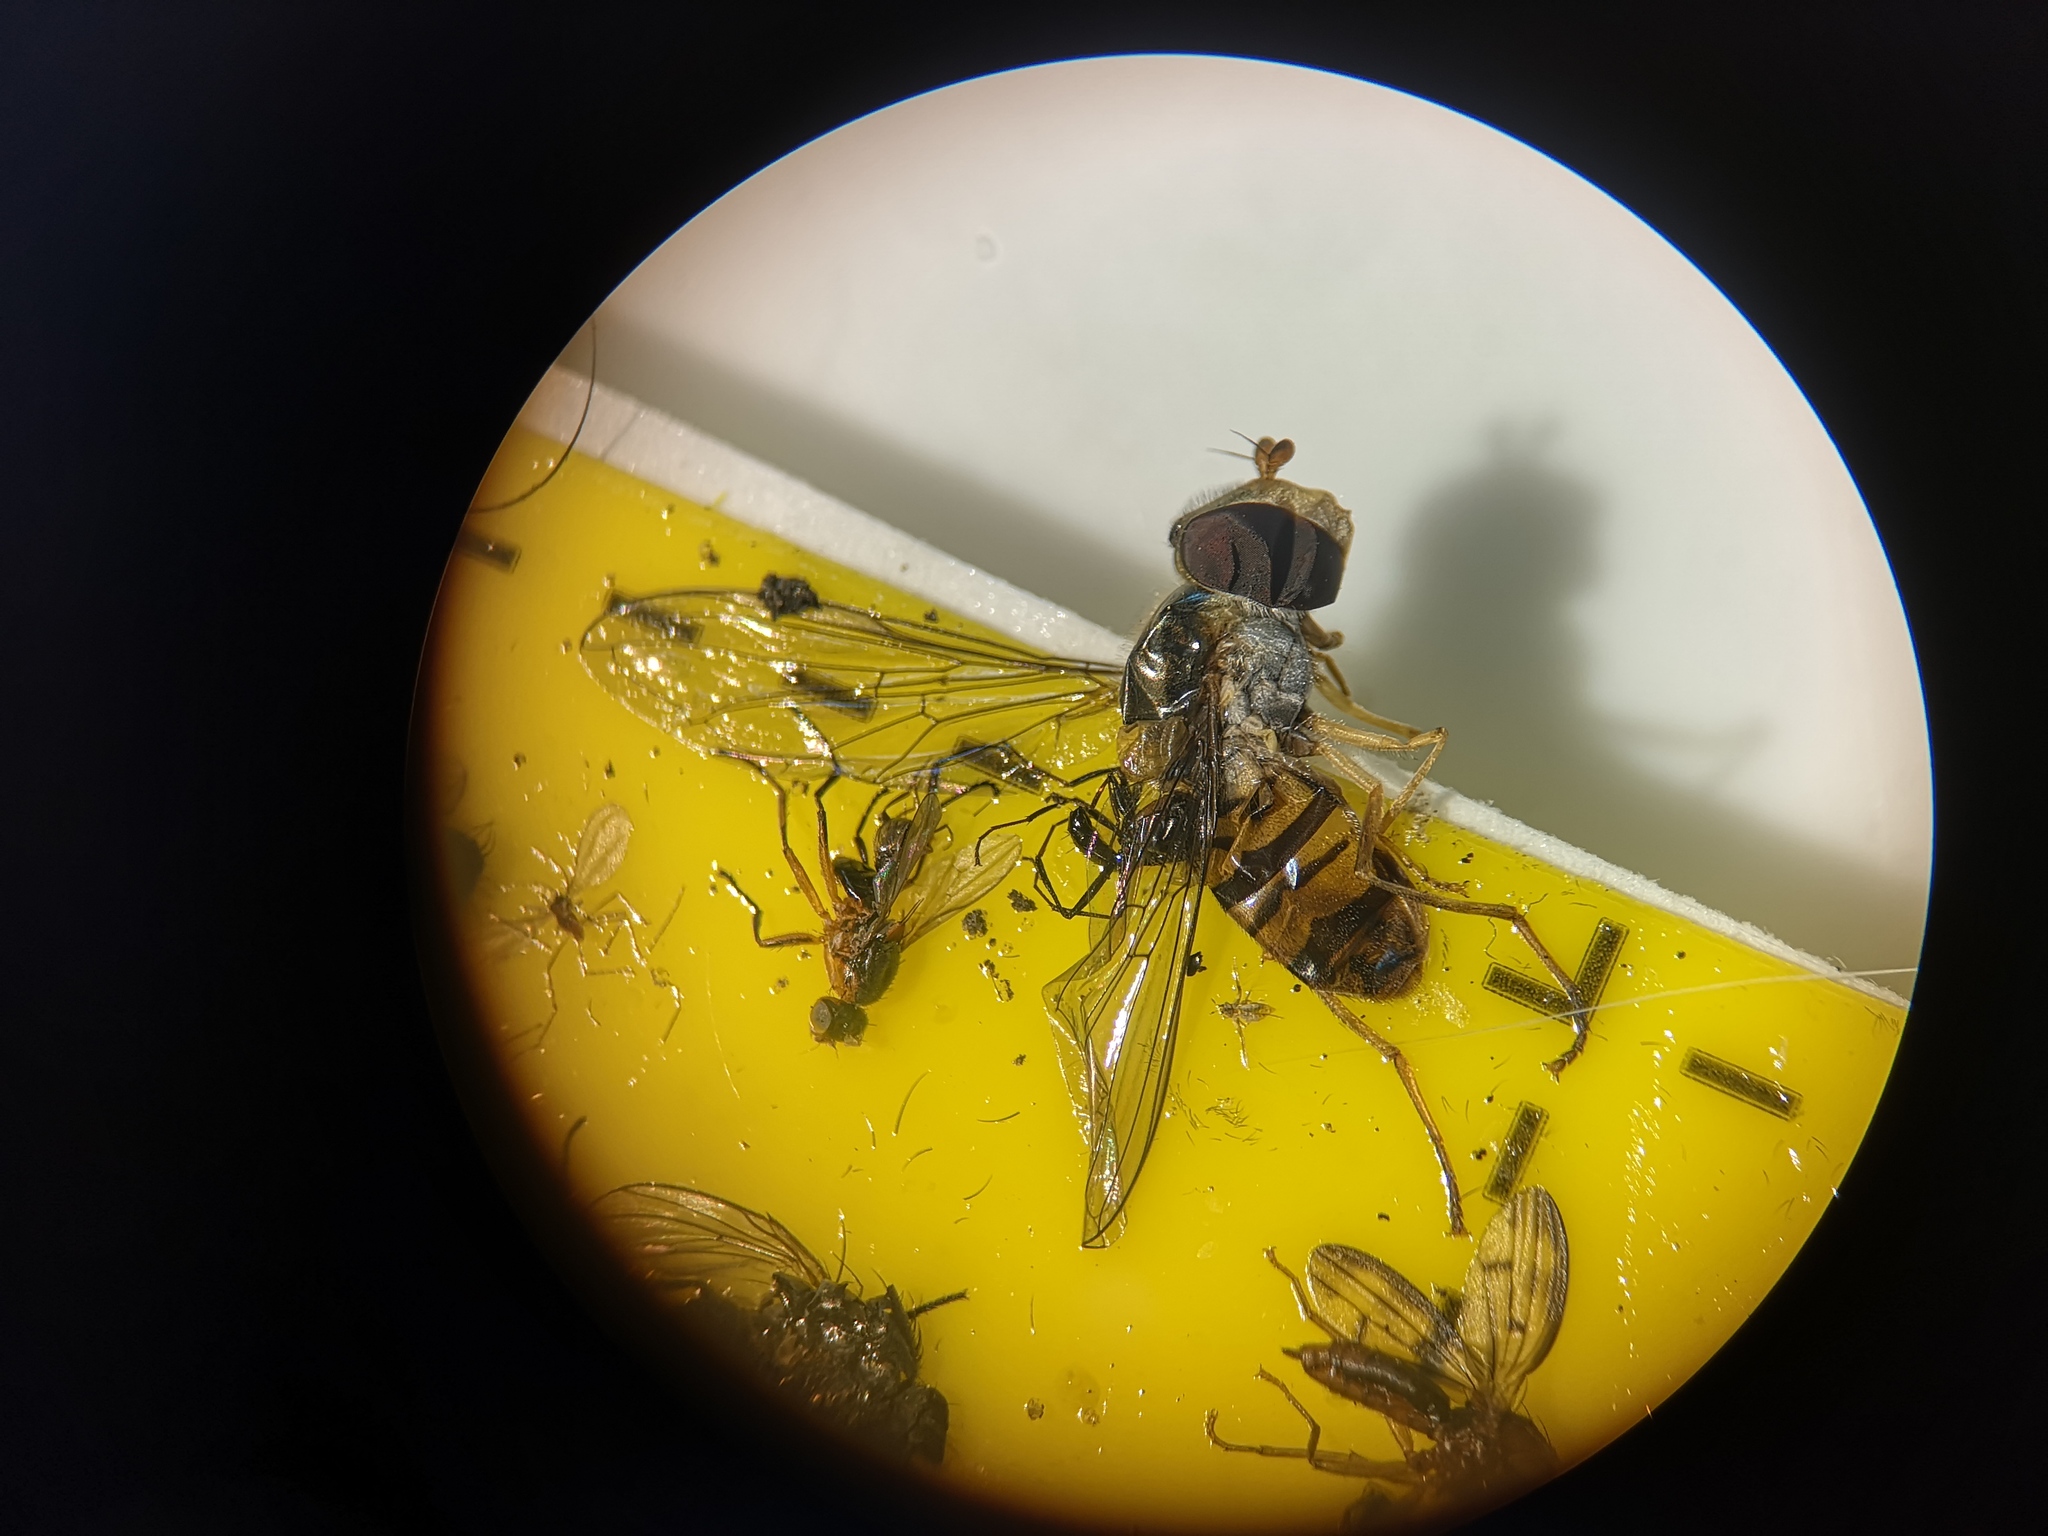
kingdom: Animalia
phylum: Arthropoda
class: Insecta
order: Diptera
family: Syrphidae
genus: Episyrphus
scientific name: Episyrphus balteatus
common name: Marmalade hoverfly
